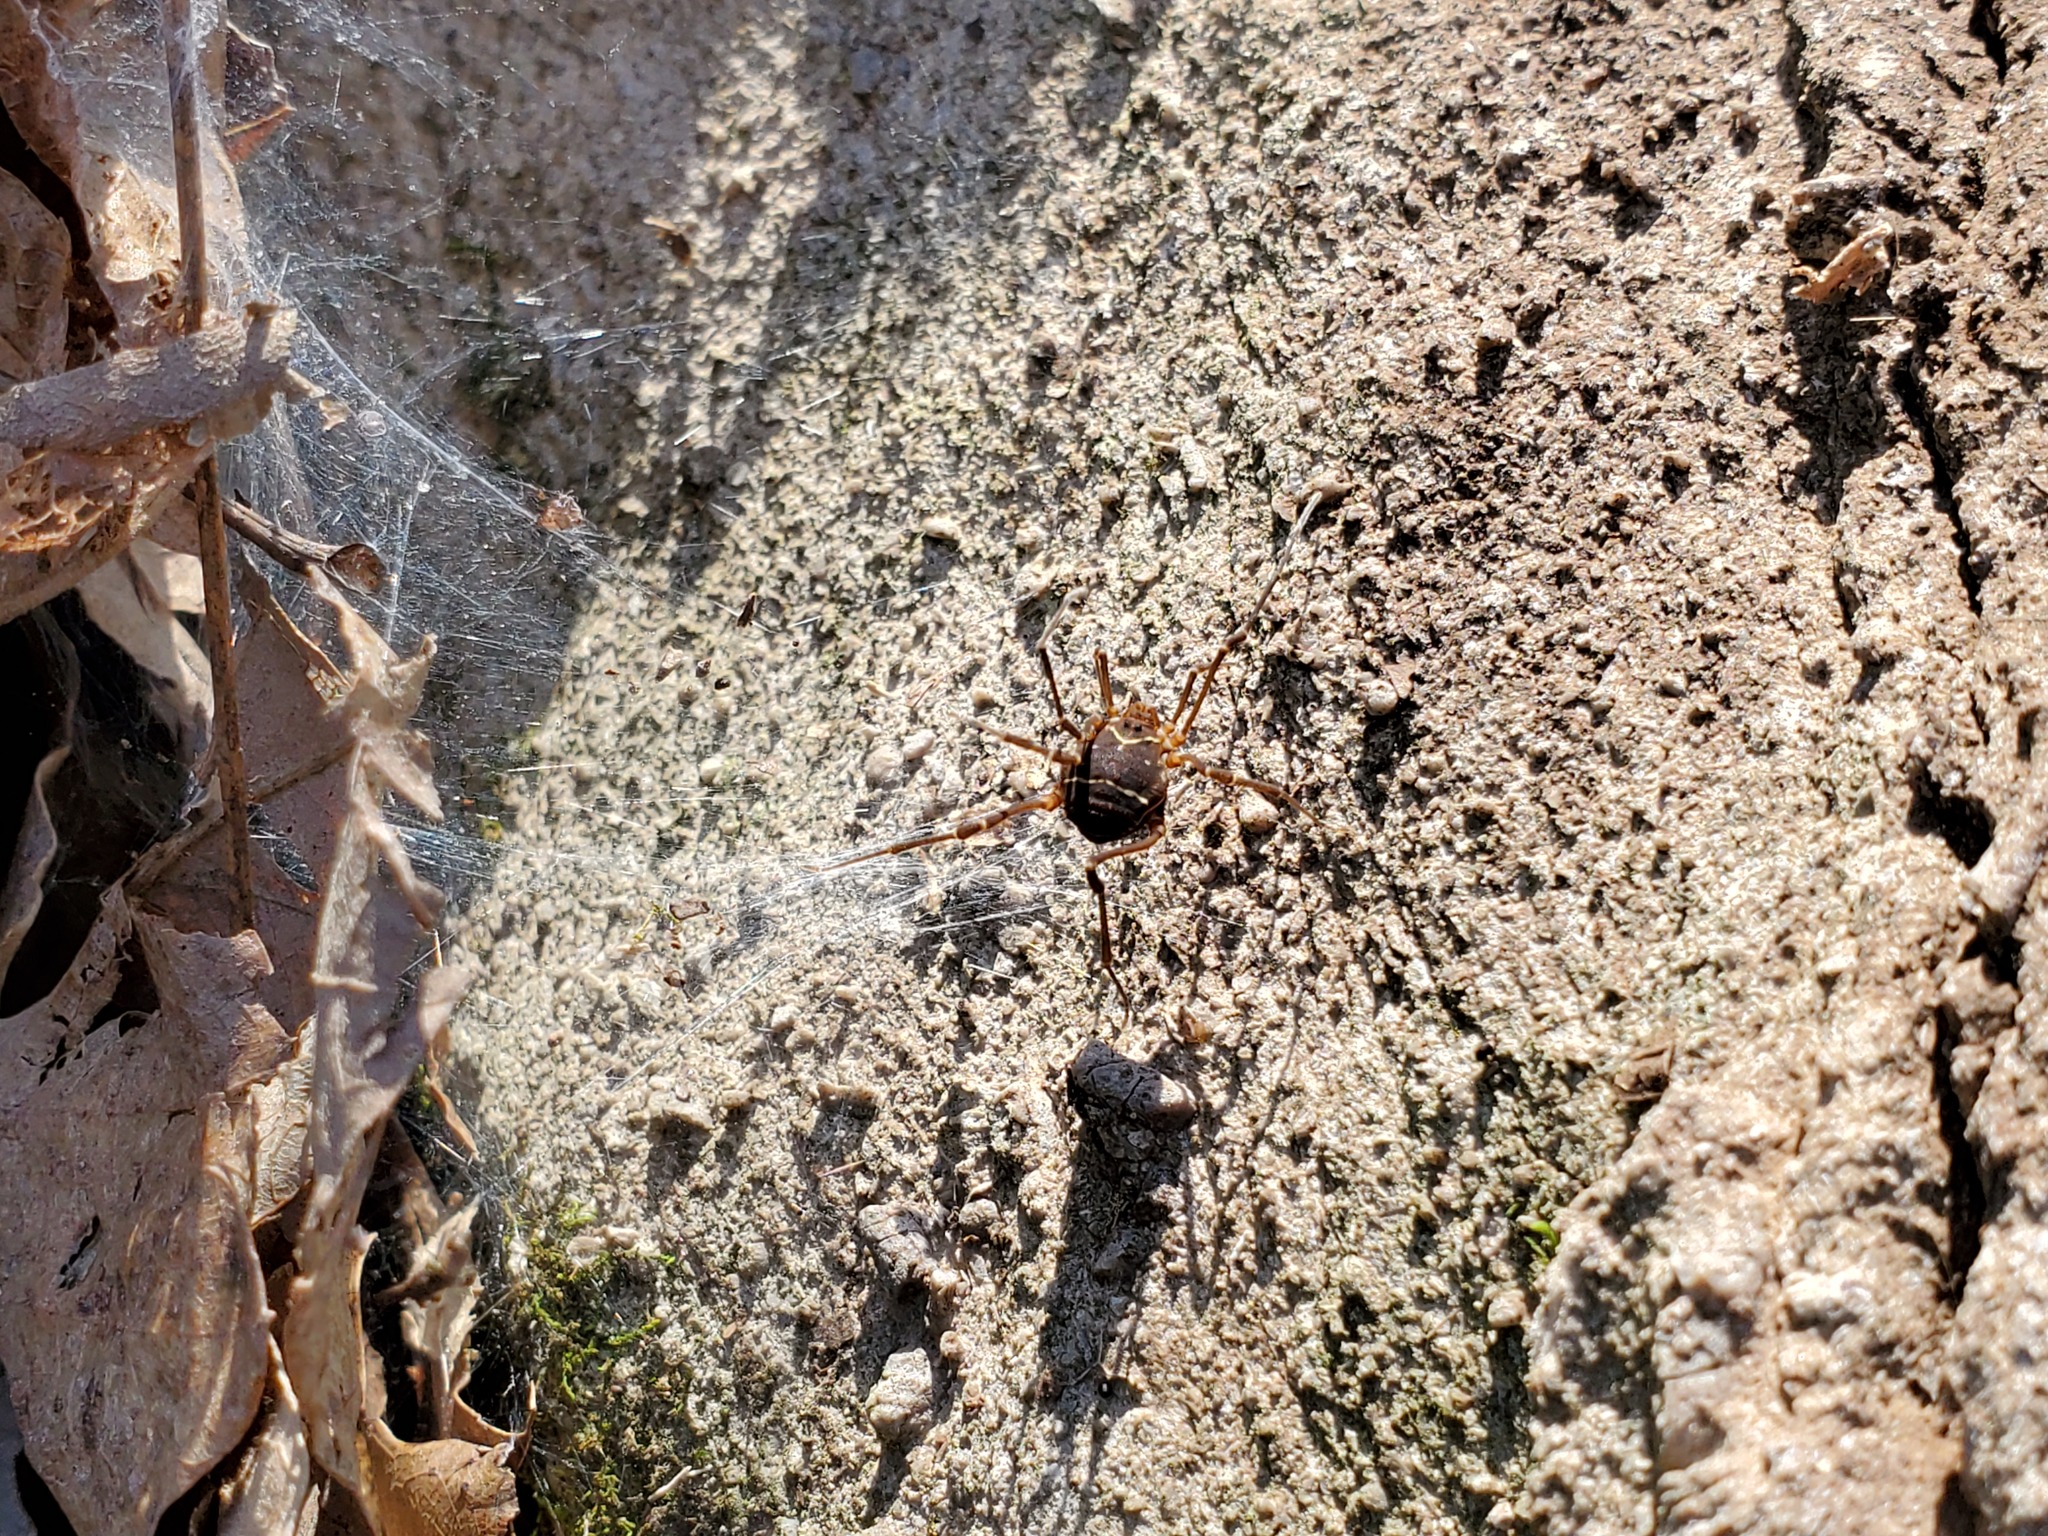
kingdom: Animalia
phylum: Arthropoda
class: Arachnida
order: Opiliones
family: Cosmetidae
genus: Libitioides
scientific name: Libitioides sayi
